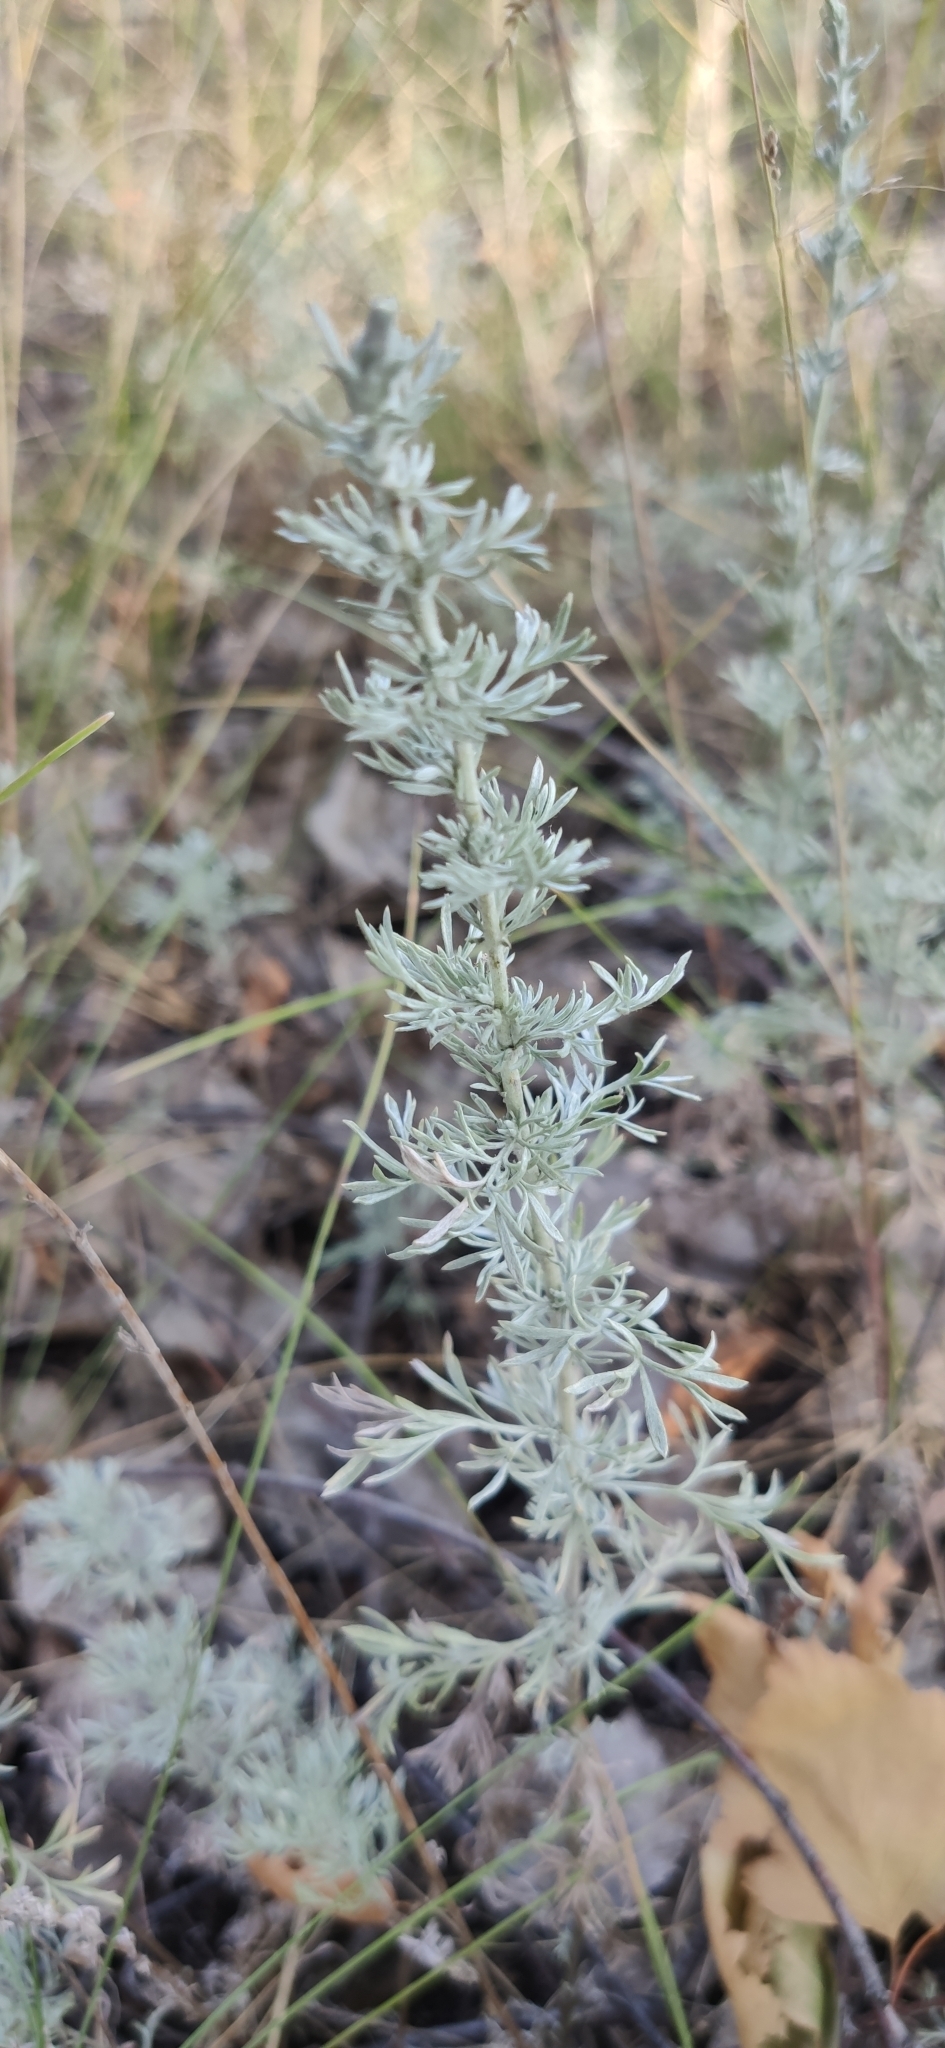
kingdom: Plantae
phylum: Tracheophyta
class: Magnoliopsida
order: Asterales
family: Asteraceae
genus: Artemisia
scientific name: Artemisia austriaca
